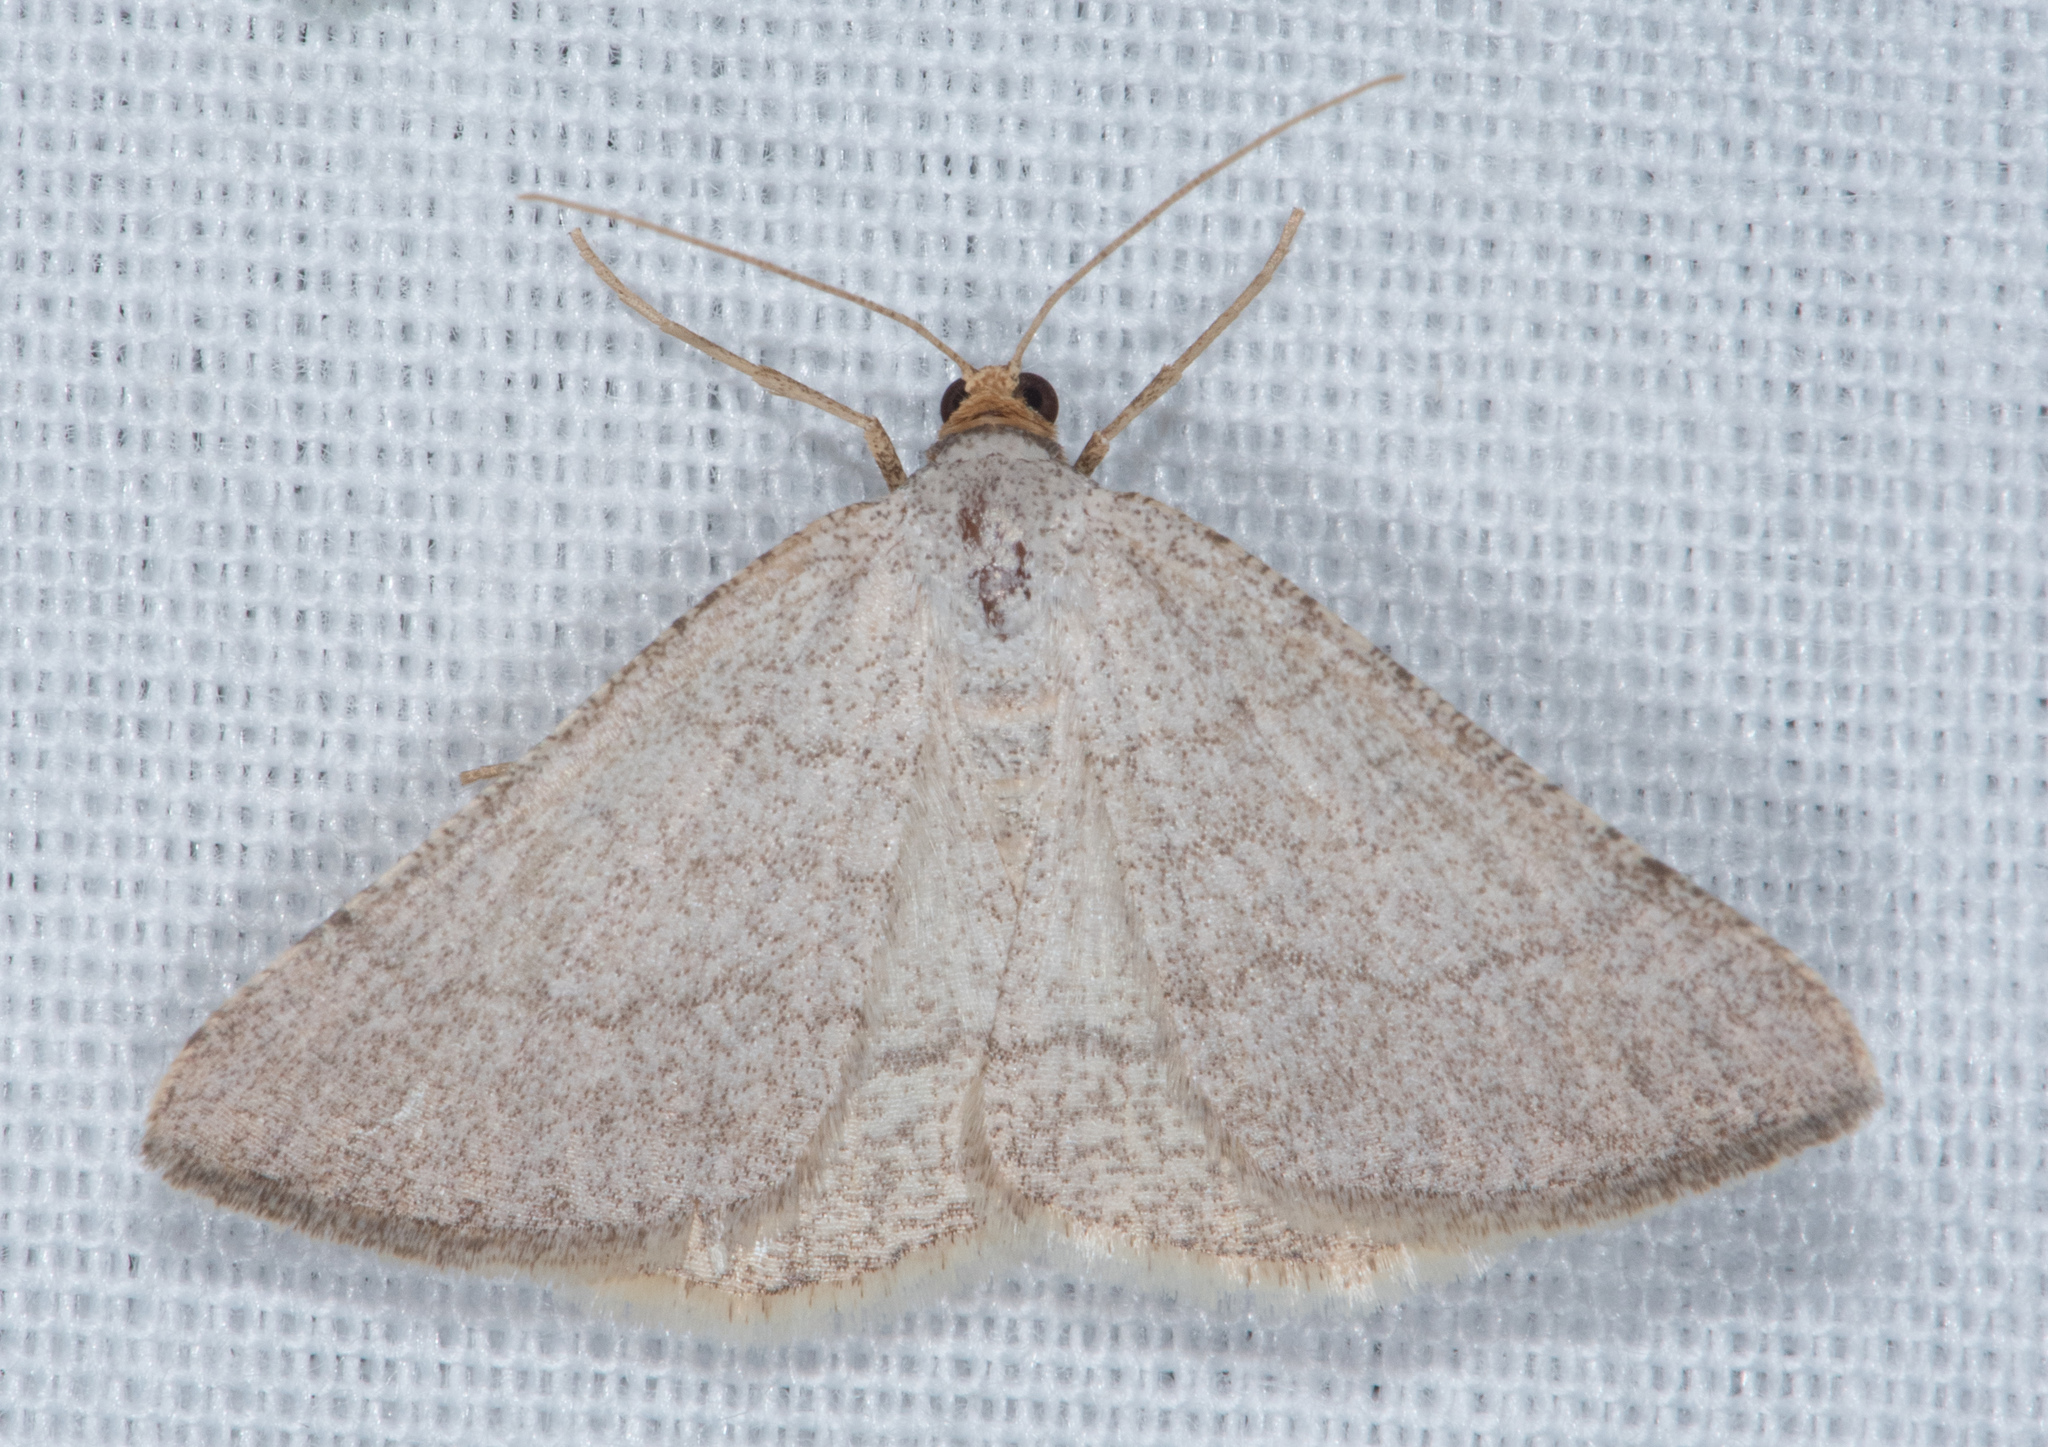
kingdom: Animalia
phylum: Arthropoda
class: Insecta
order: Lepidoptera
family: Geometridae
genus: Macaria
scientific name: Macaria tenebrosata
